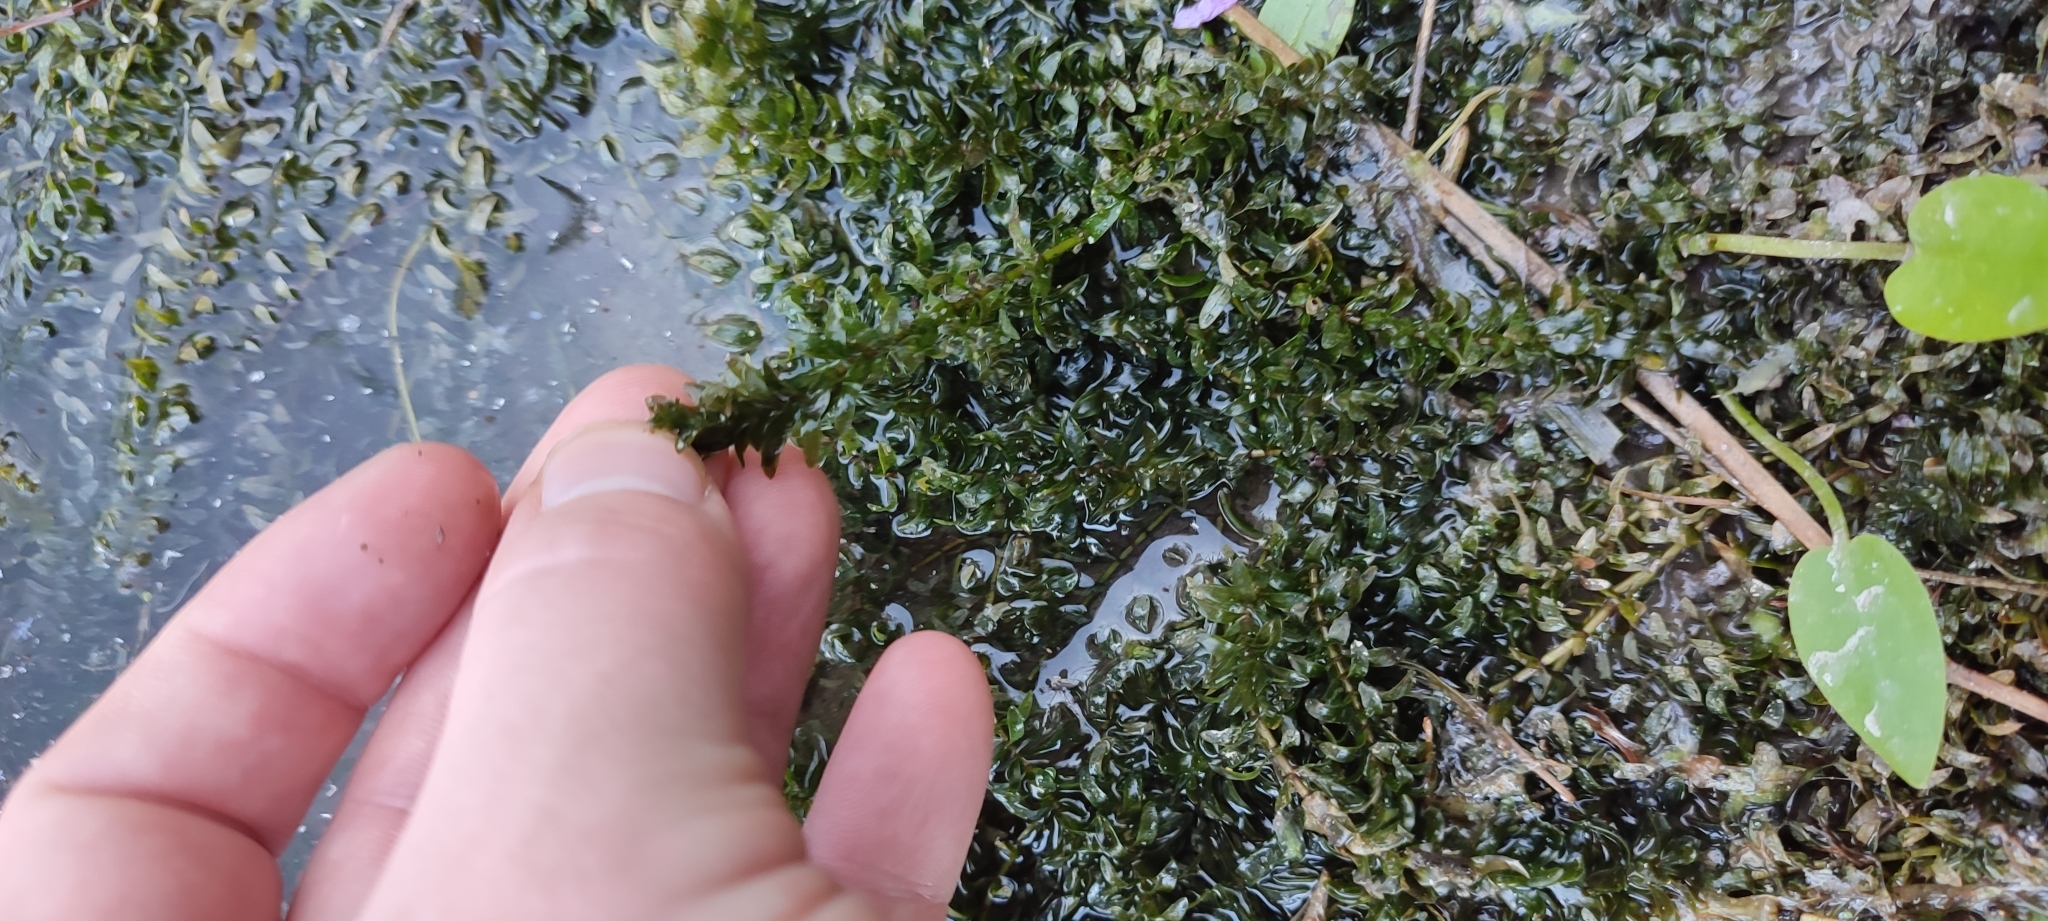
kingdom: Plantae
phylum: Tracheophyta
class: Liliopsida
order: Alismatales
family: Hydrocharitaceae
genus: Elodea
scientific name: Elodea canadensis
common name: Canadian waterweed
